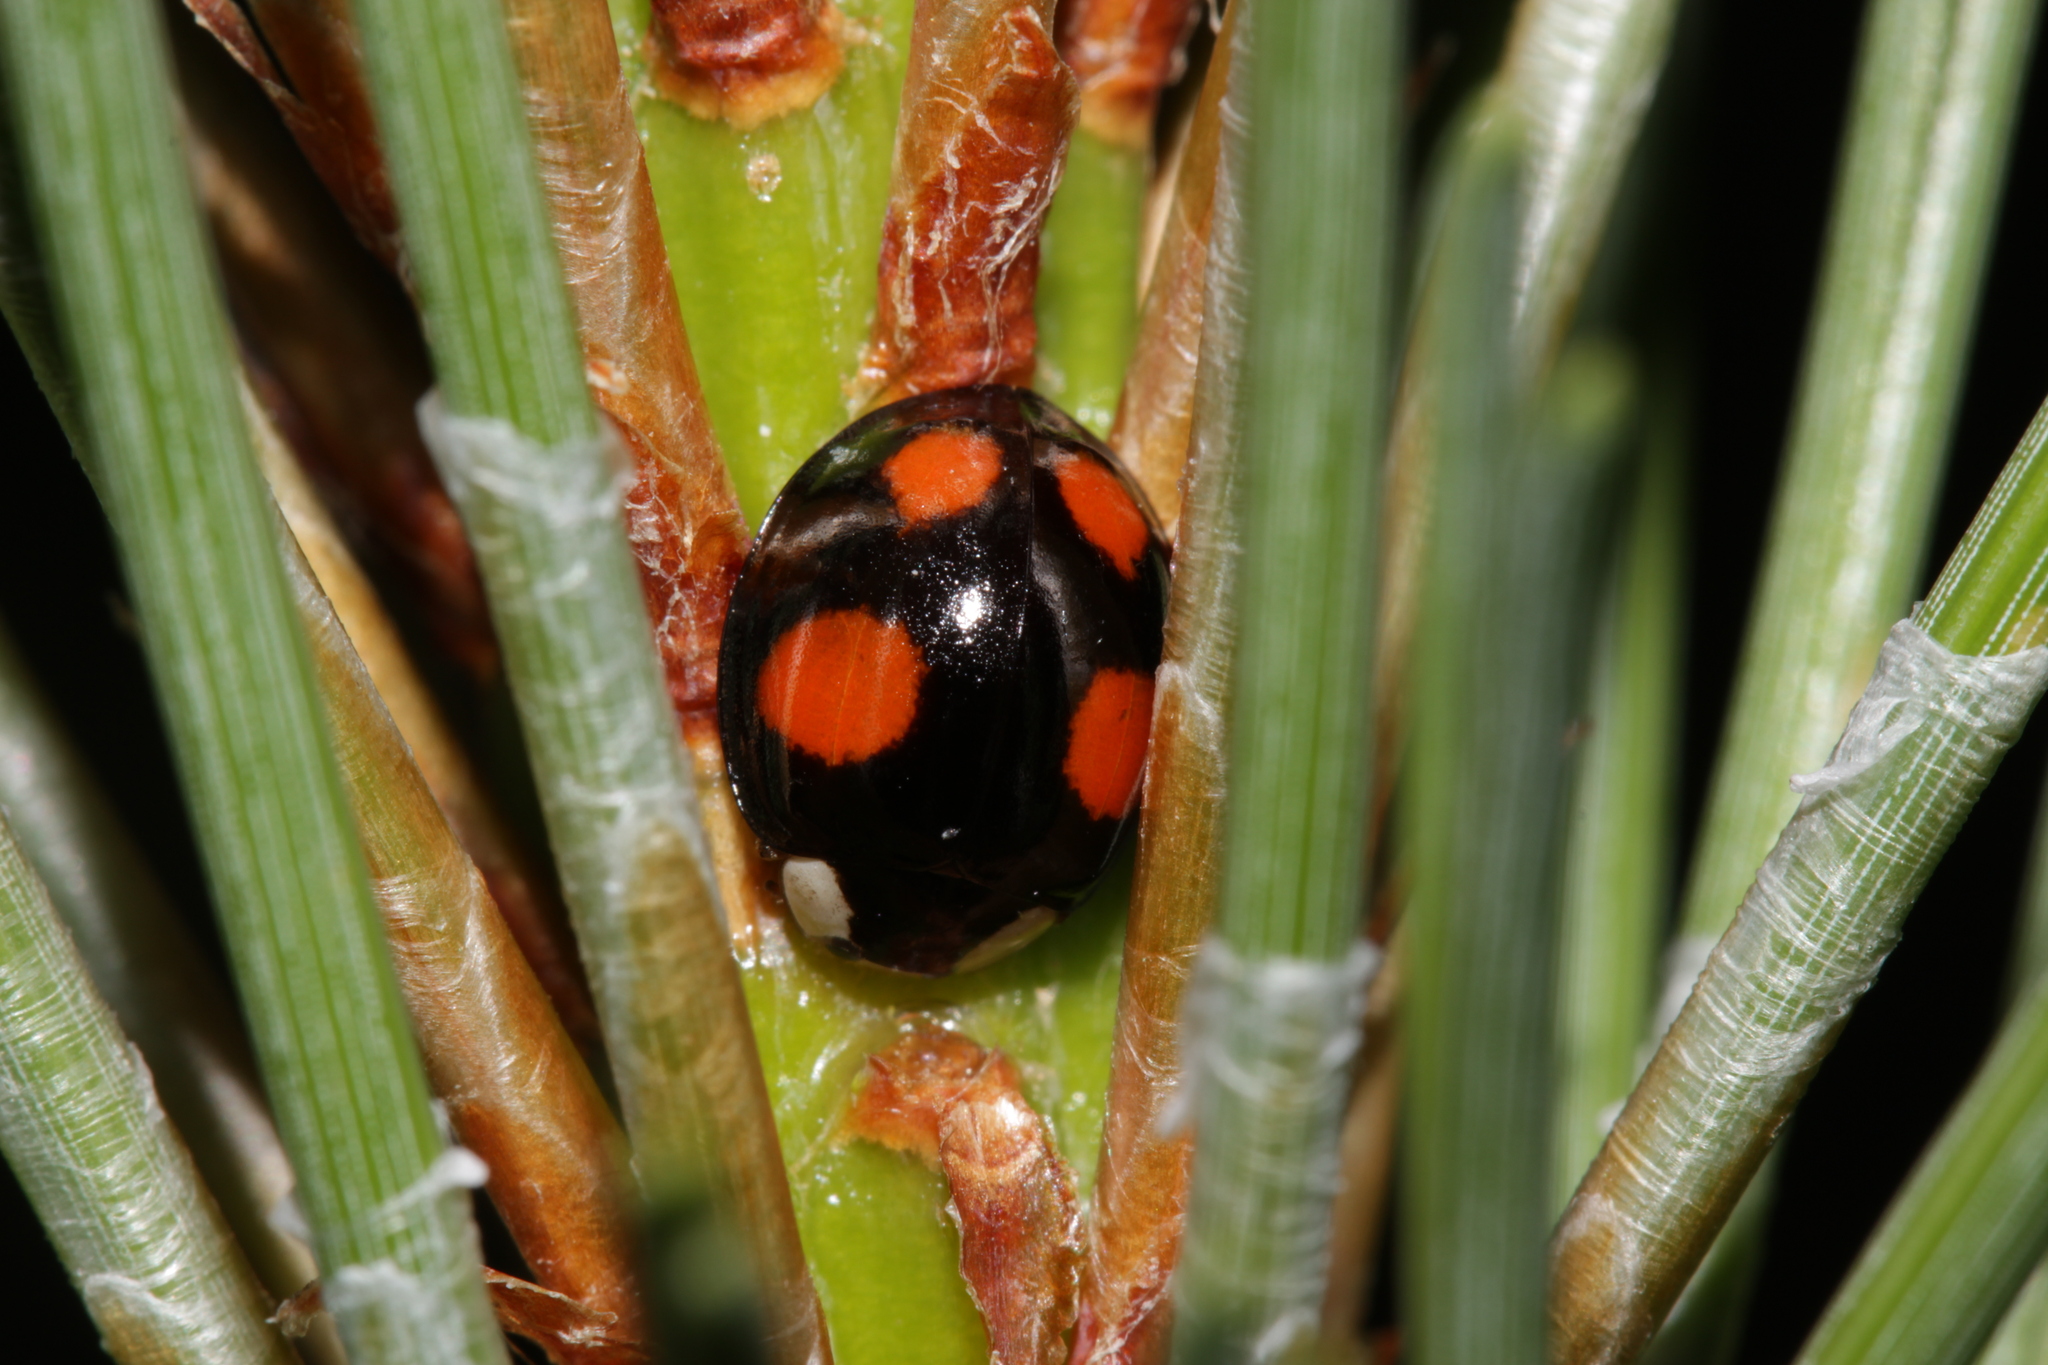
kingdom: Animalia
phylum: Arthropoda
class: Insecta
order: Coleoptera
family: Coccinellidae
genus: Harmonia
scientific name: Harmonia axyridis
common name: Harlequin ladybird
